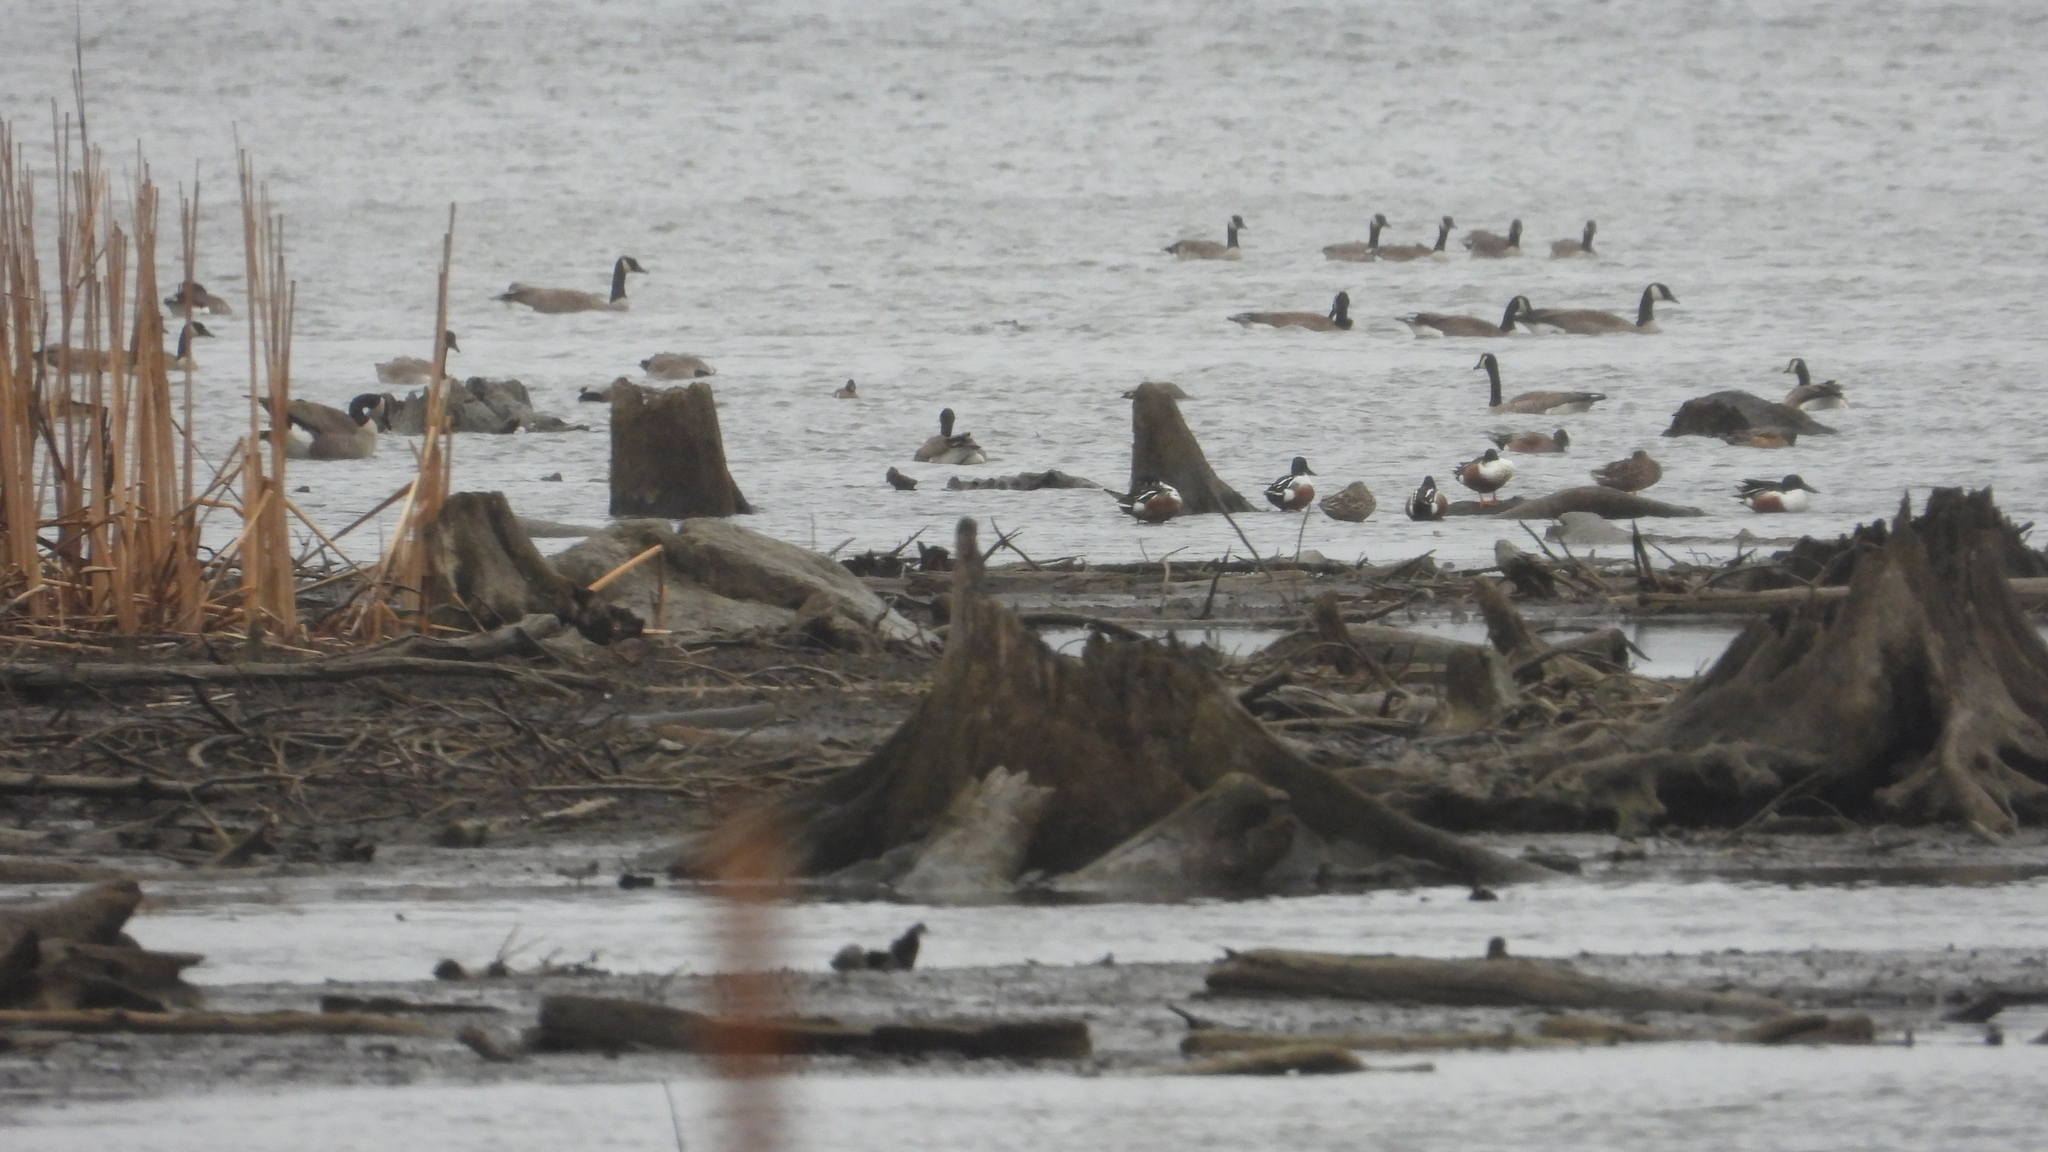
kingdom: Animalia
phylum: Chordata
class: Aves
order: Anseriformes
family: Anatidae
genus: Spatula
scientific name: Spatula clypeata
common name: Northern shoveler
